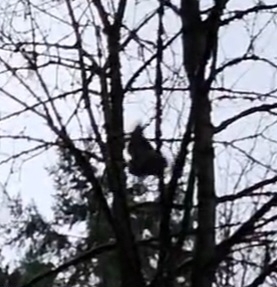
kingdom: Animalia
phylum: Chordata
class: Aves
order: Strigiformes
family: Strigidae
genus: Bubo
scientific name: Bubo virginianus
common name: Great horned owl
